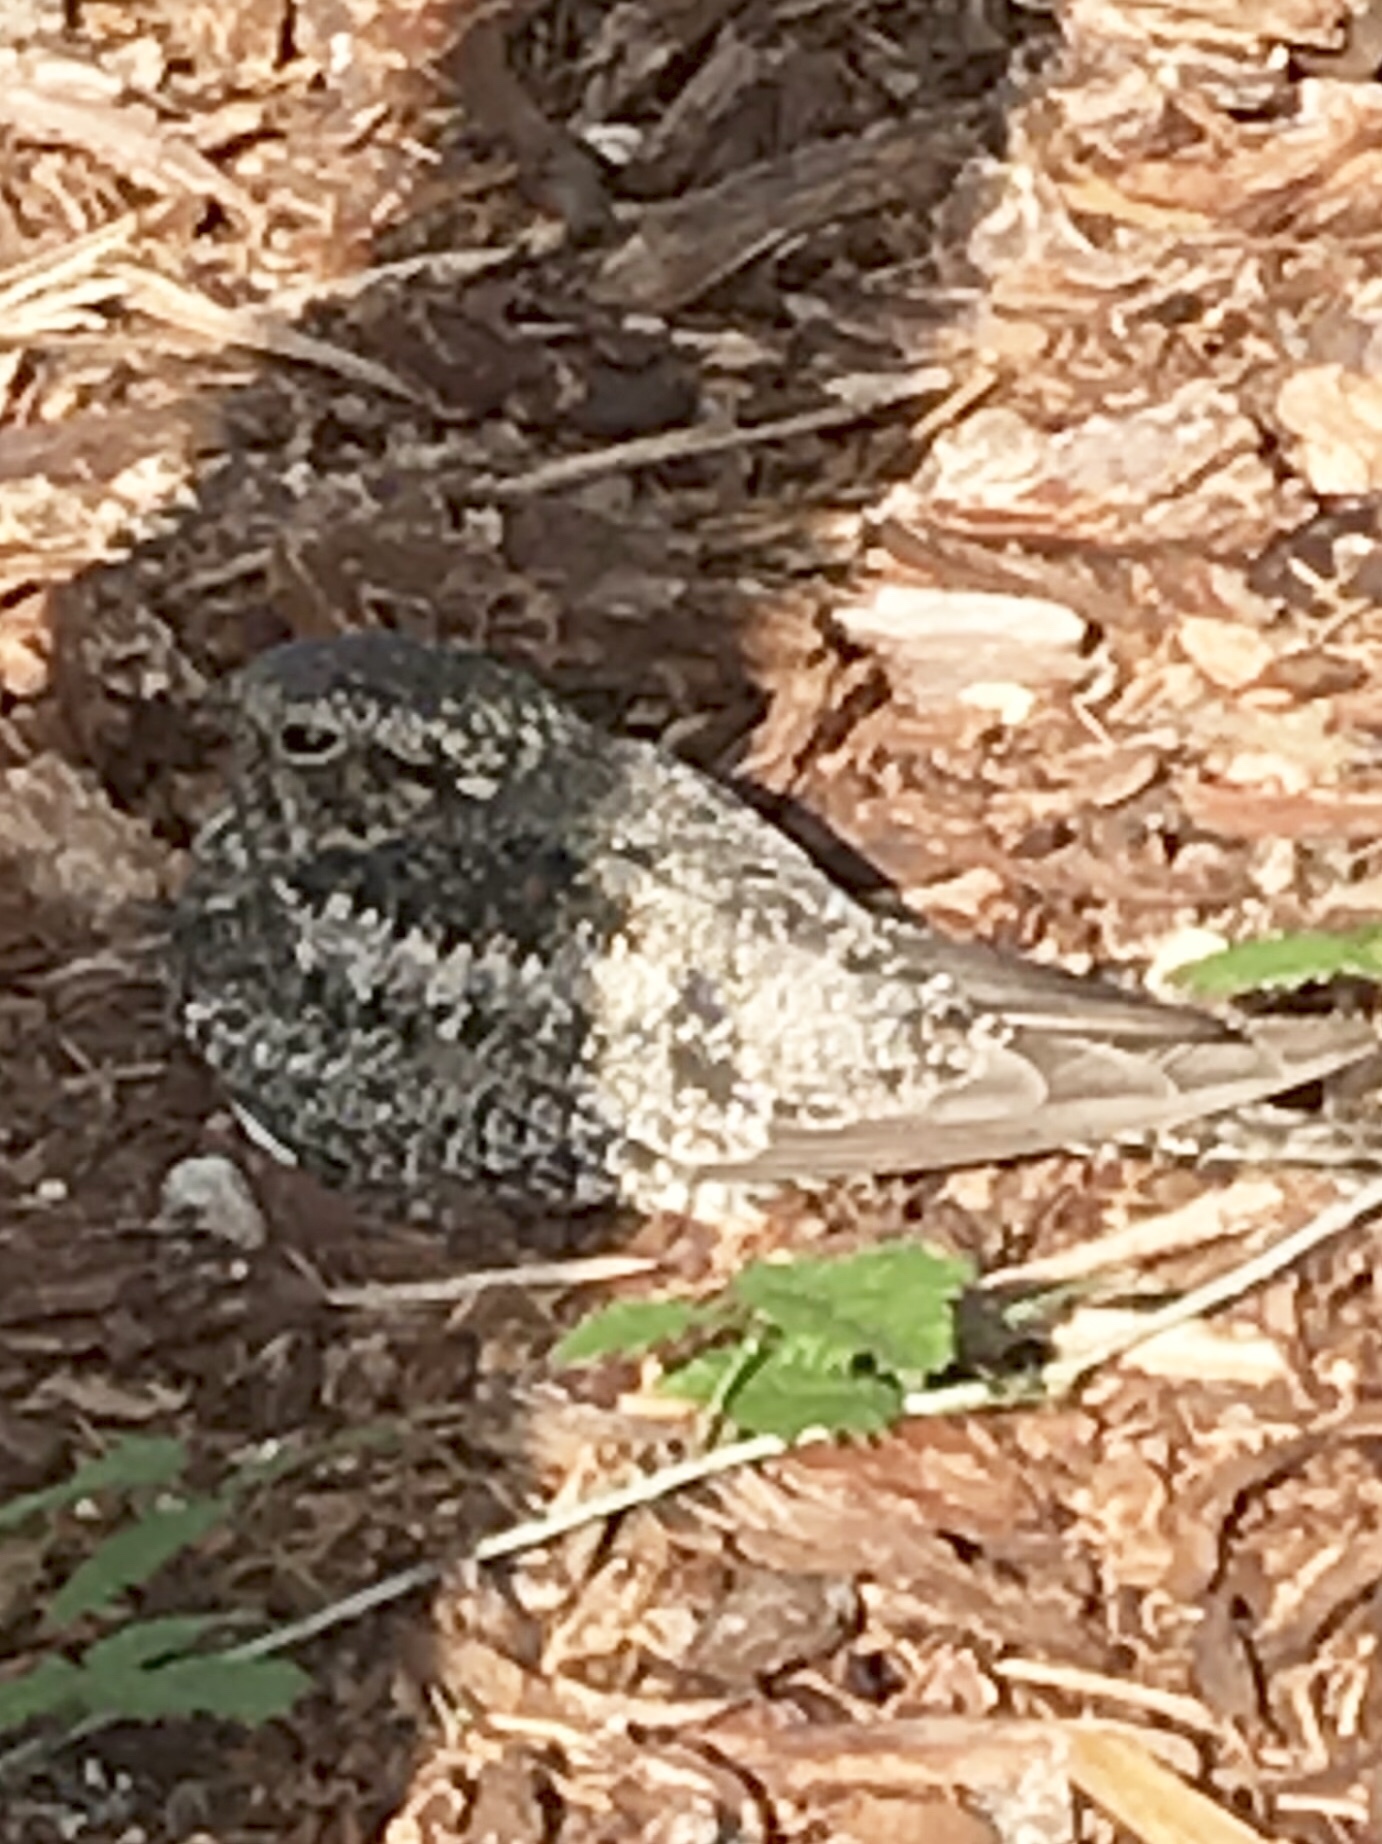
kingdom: Animalia
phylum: Chordata
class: Aves
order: Caprimulgiformes
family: Caprimulgidae
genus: Chordeiles
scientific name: Chordeiles minor
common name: Common nighthawk
